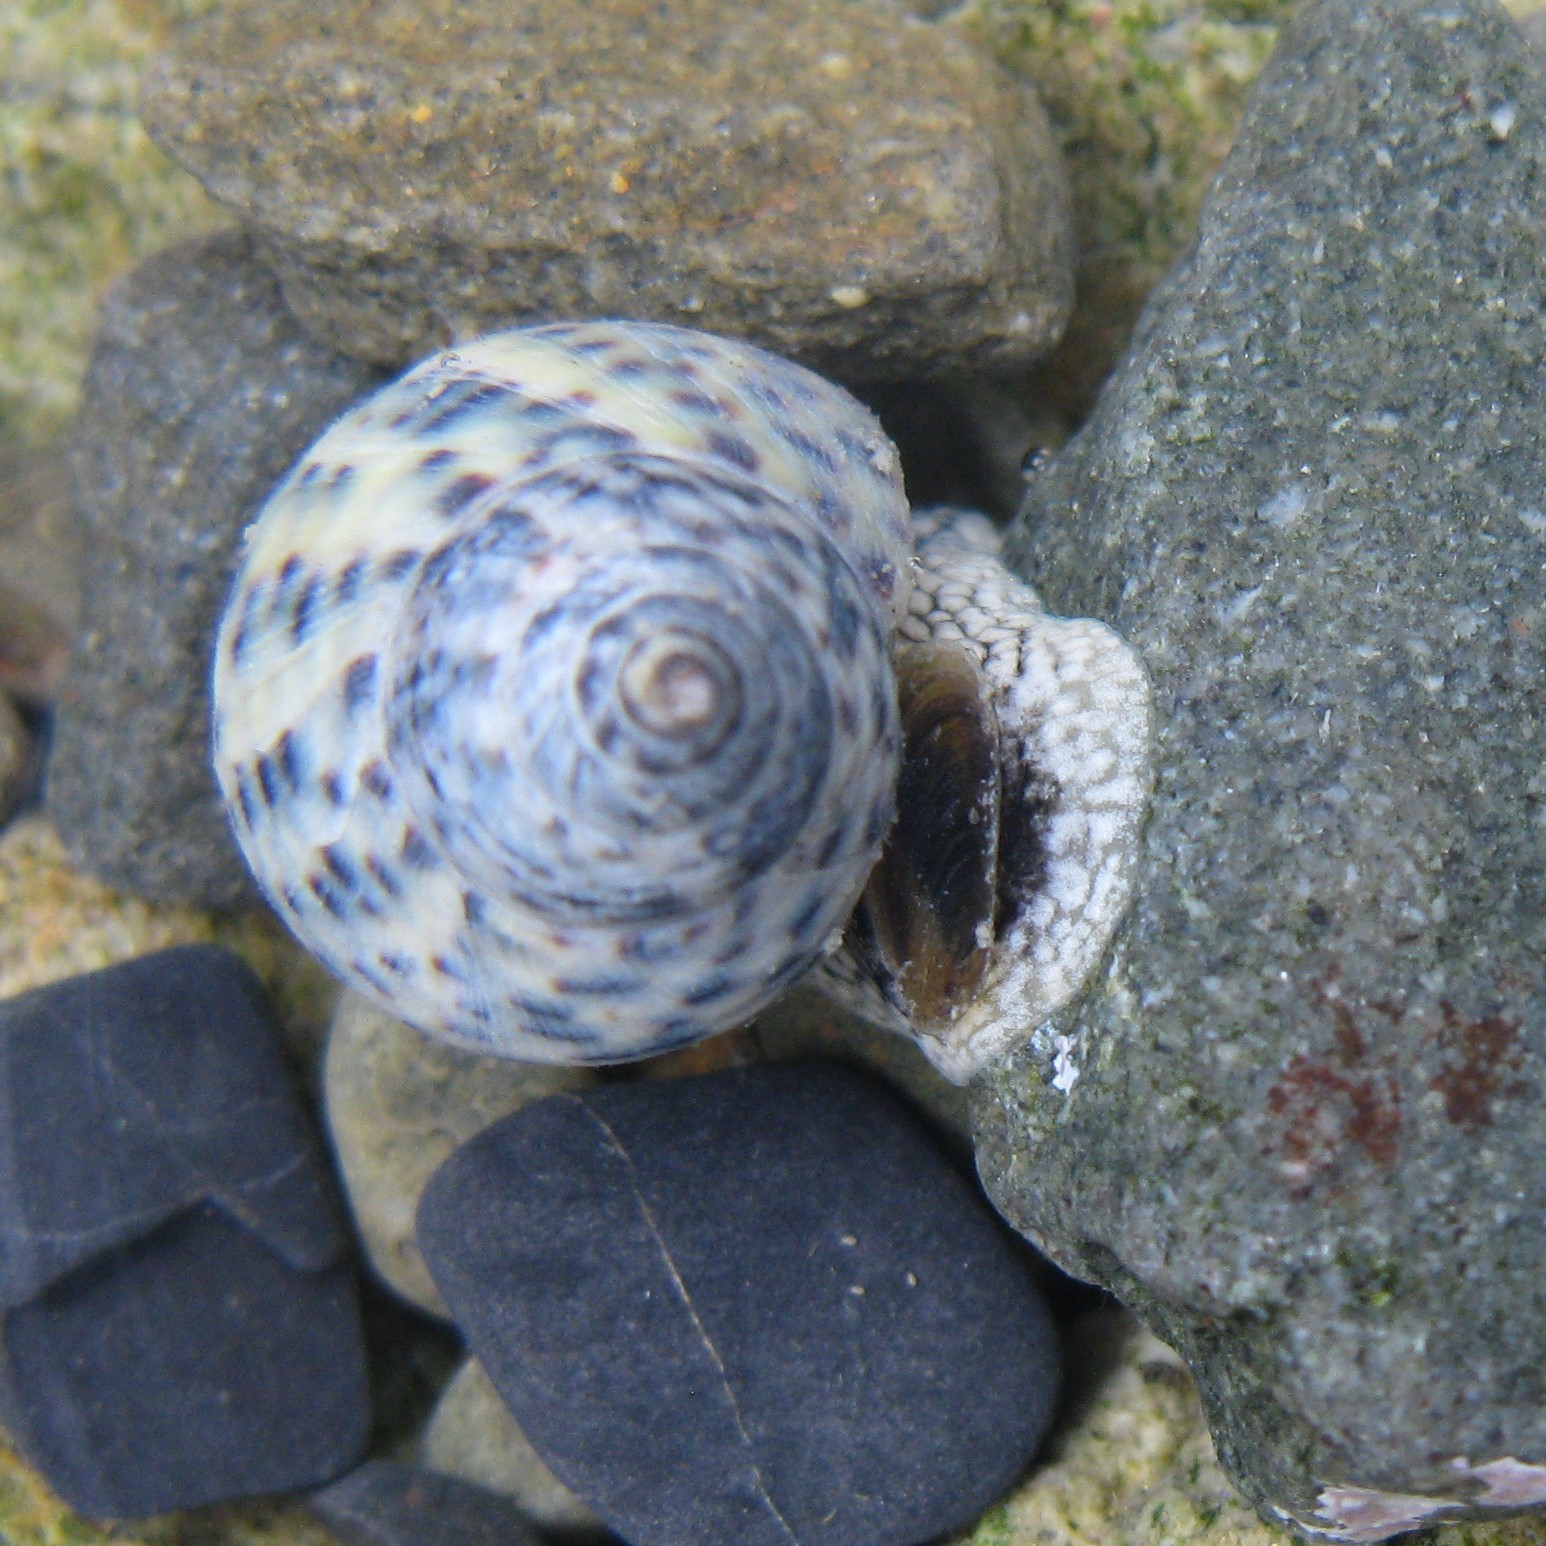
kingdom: Animalia
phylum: Mollusca
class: Gastropoda
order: Neogastropoda
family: Cominellidae
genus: Cominella
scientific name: Cominella maculosa
